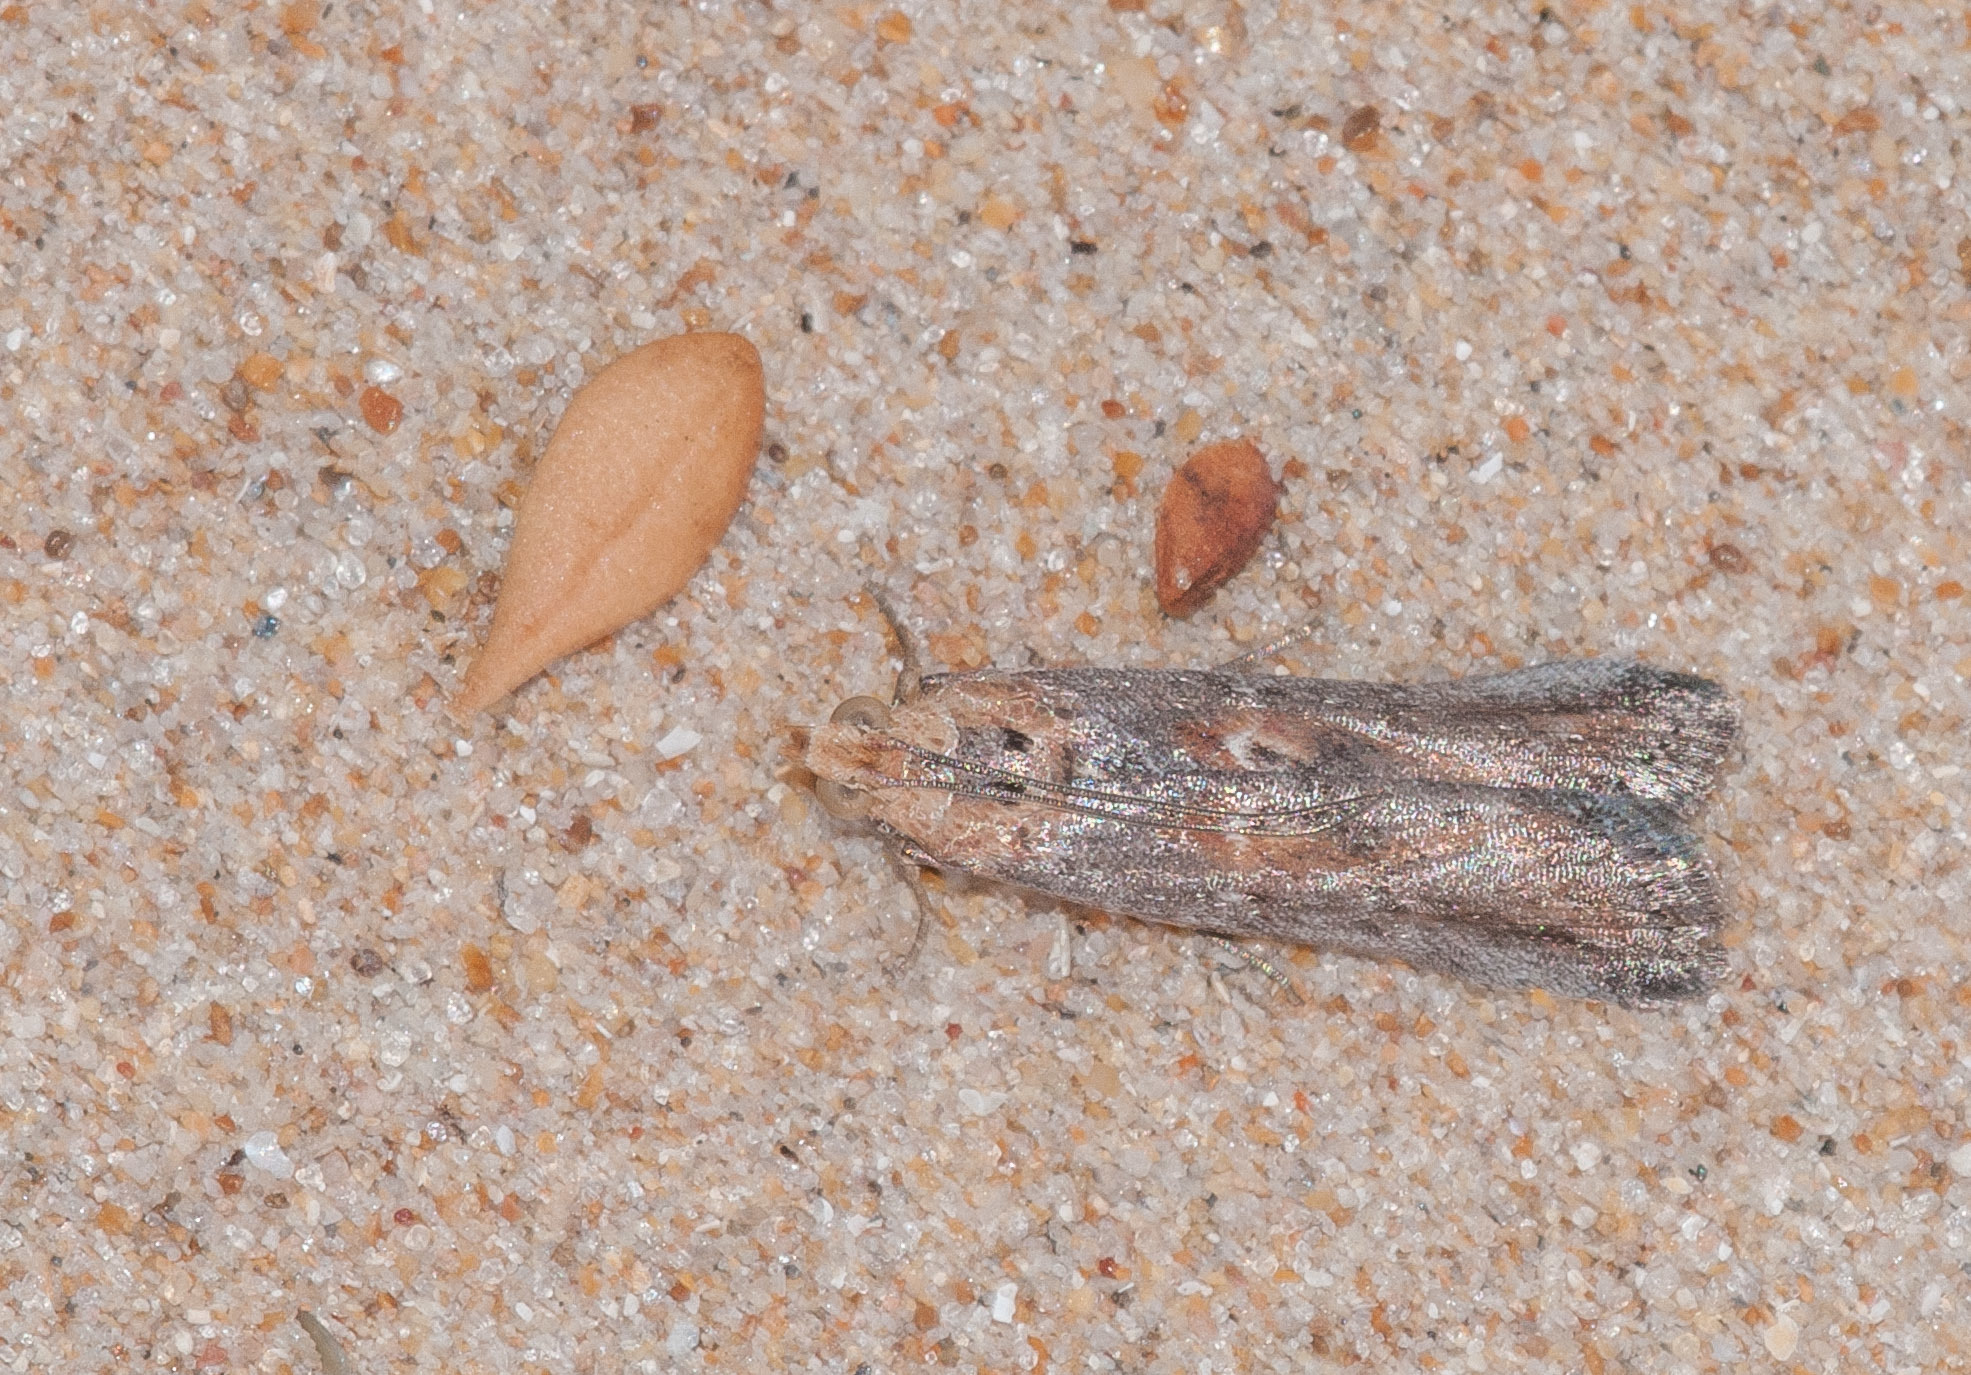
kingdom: Animalia
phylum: Arthropoda
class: Insecta
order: Lepidoptera
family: Pyralidae
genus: Morosaphycita
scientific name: Morosaphycita oculiferella
